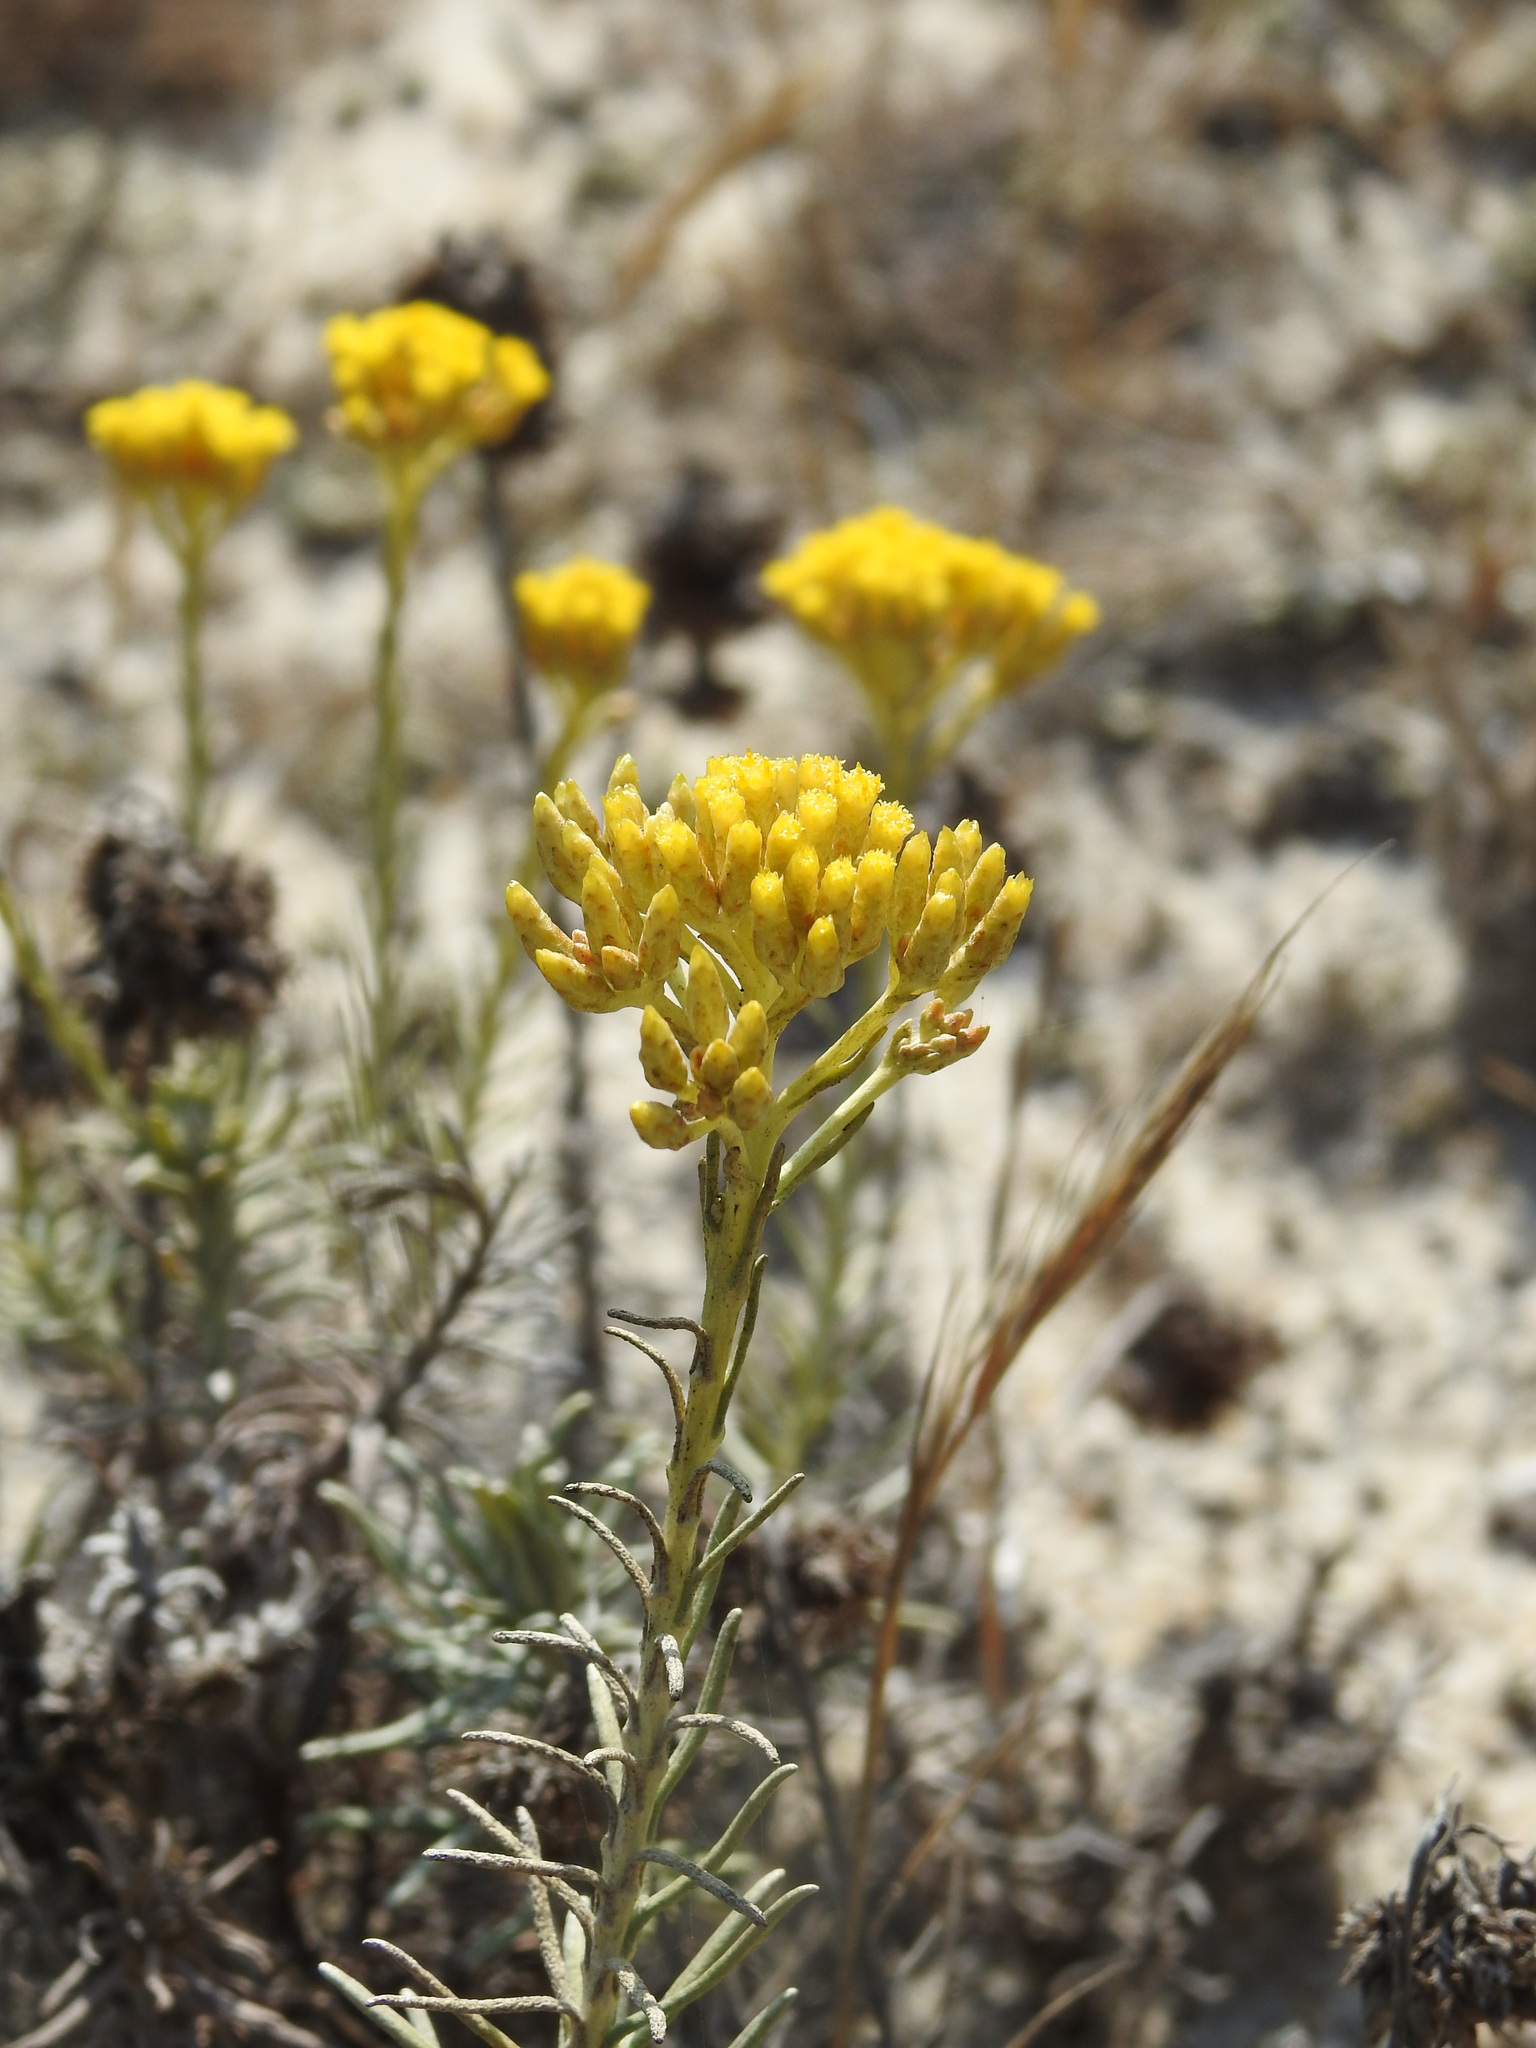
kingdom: Plantae
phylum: Tracheophyta
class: Magnoliopsida
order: Asterales
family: Asteraceae
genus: Helichrysum
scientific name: Helichrysum serotinum
